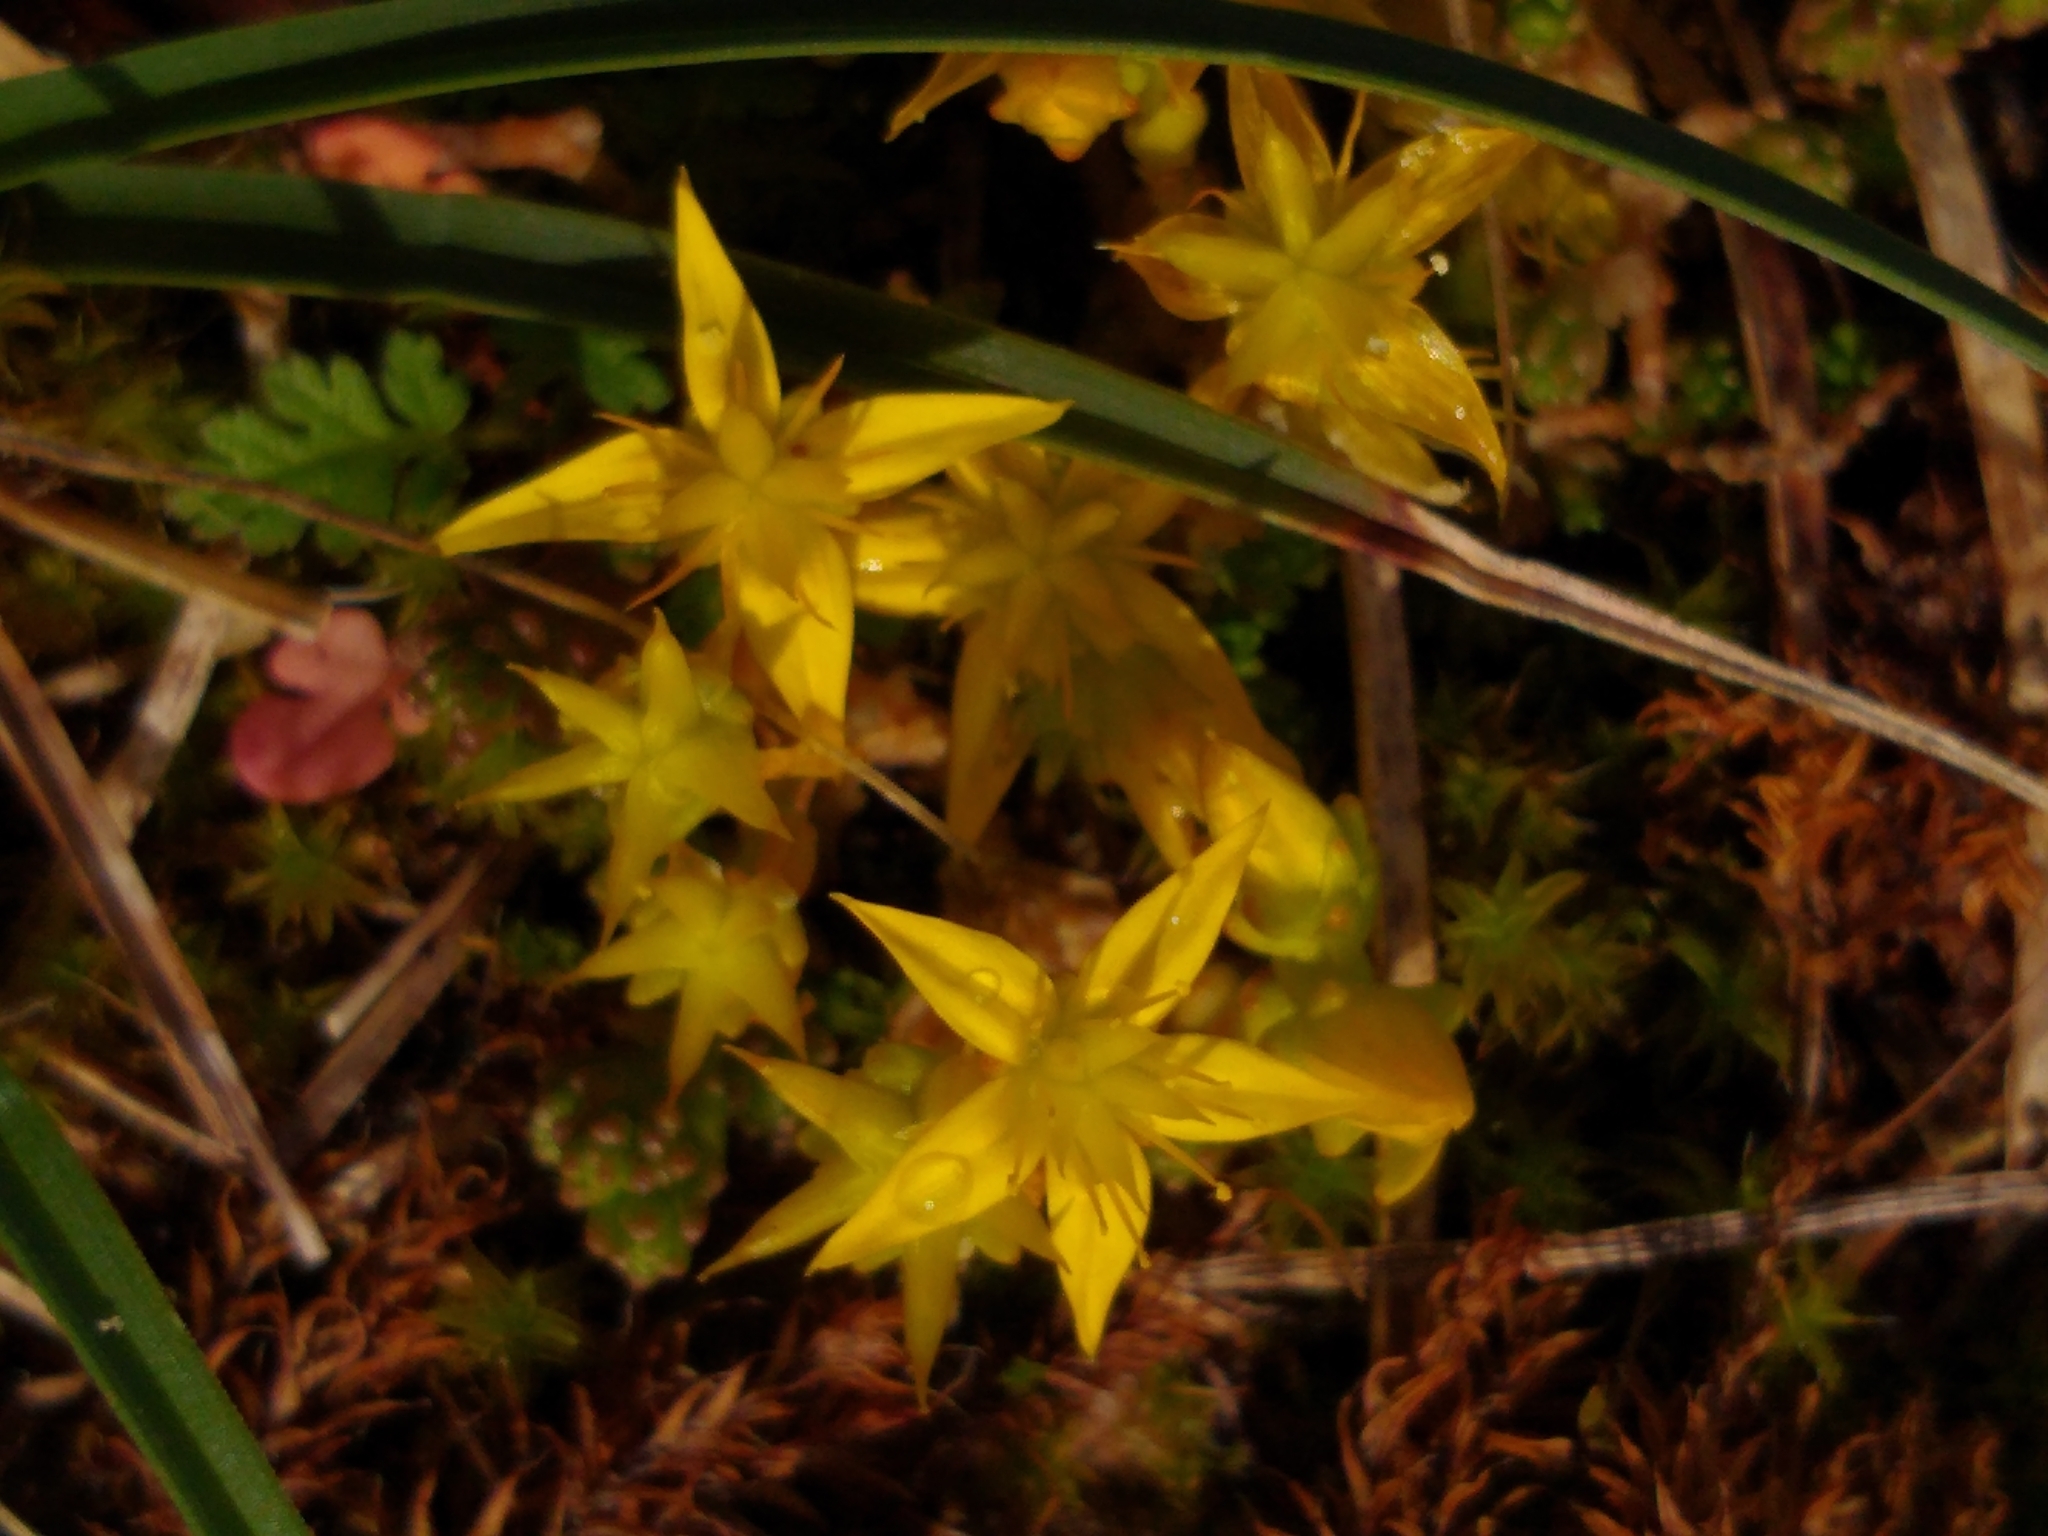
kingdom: Plantae
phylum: Tracheophyta
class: Magnoliopsida
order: Saxifragales
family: Crassulaceae
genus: Sedum
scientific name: Sedum acre
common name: Biting stonecrop
